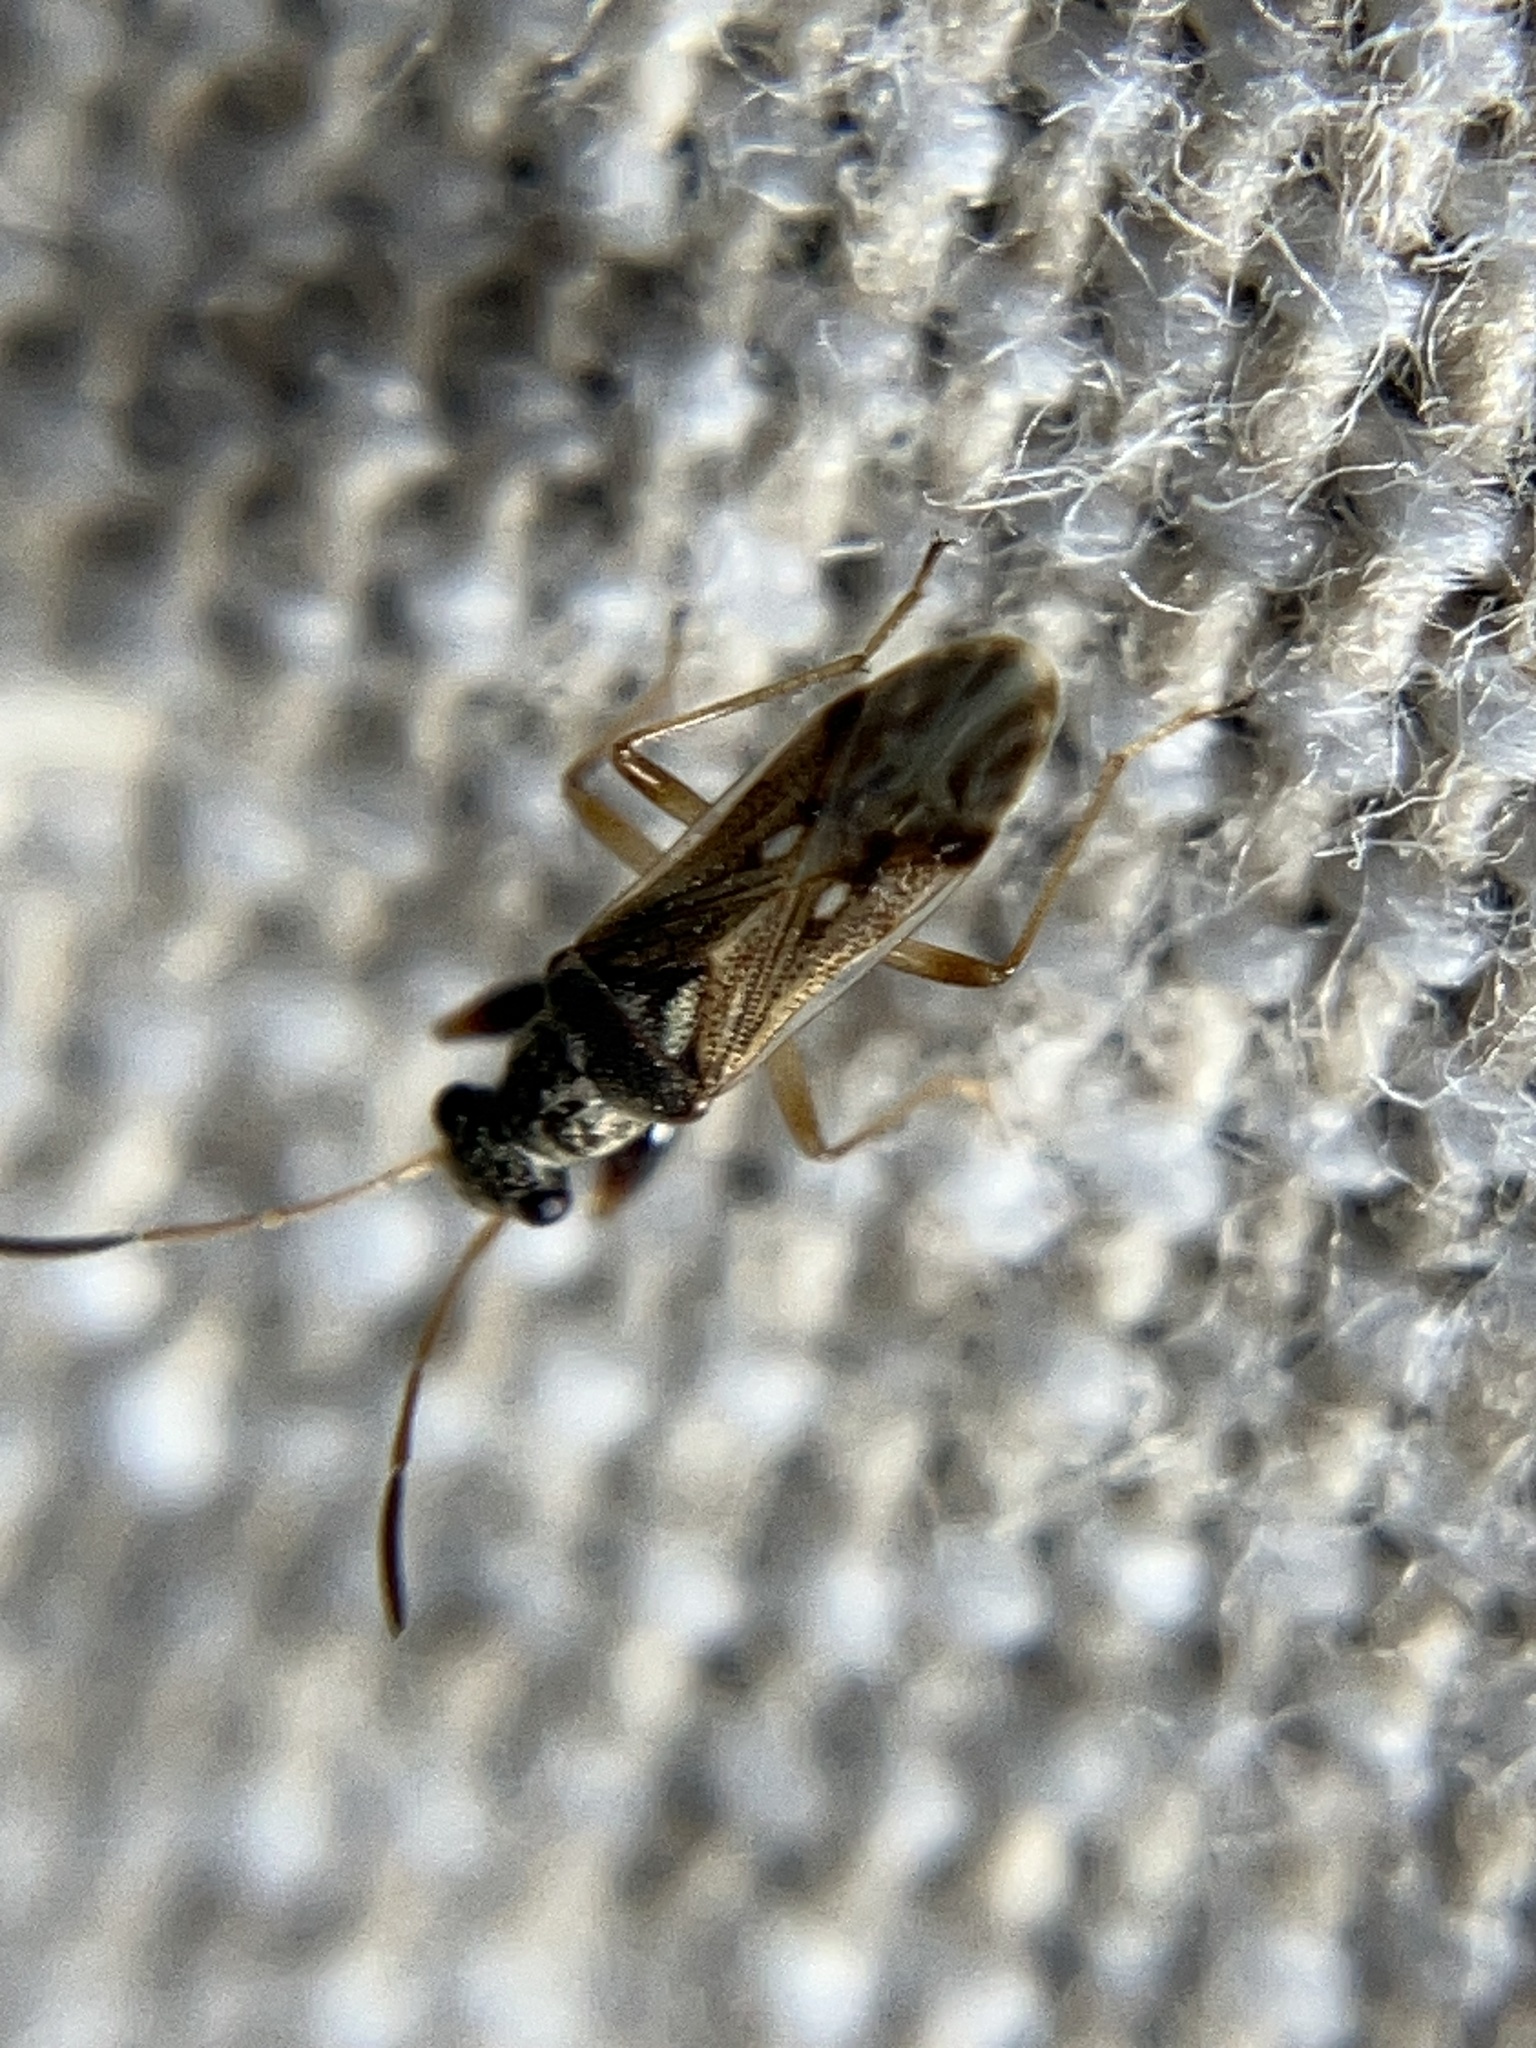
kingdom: Animalia
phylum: Arthropoda
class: Insecta
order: Hemiptera
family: Rhyparochromidae
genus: Pseudopachybrachius
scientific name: Pseudopachybrachius guttus
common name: Seed bug
